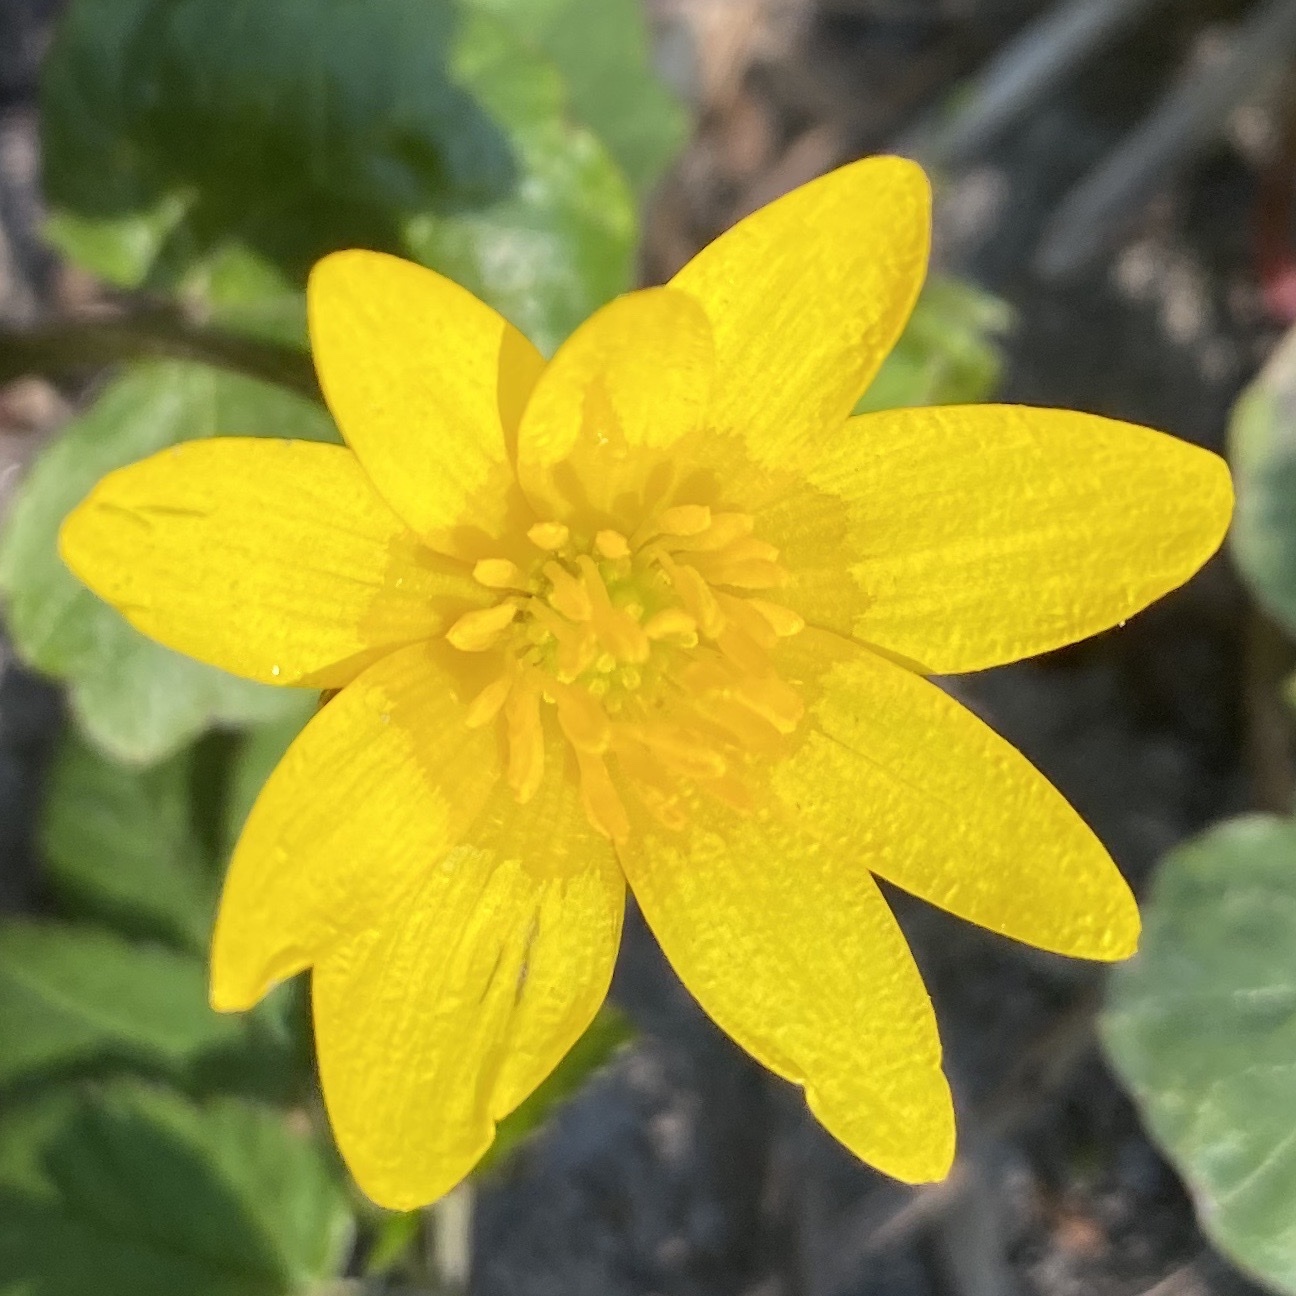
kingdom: Plantae
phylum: Tracheophyta
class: Magnoliopsida
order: Ranunculales
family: Ranunculaceae
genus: Ficaria
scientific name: Ficaria verna
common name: Lesser celandine
